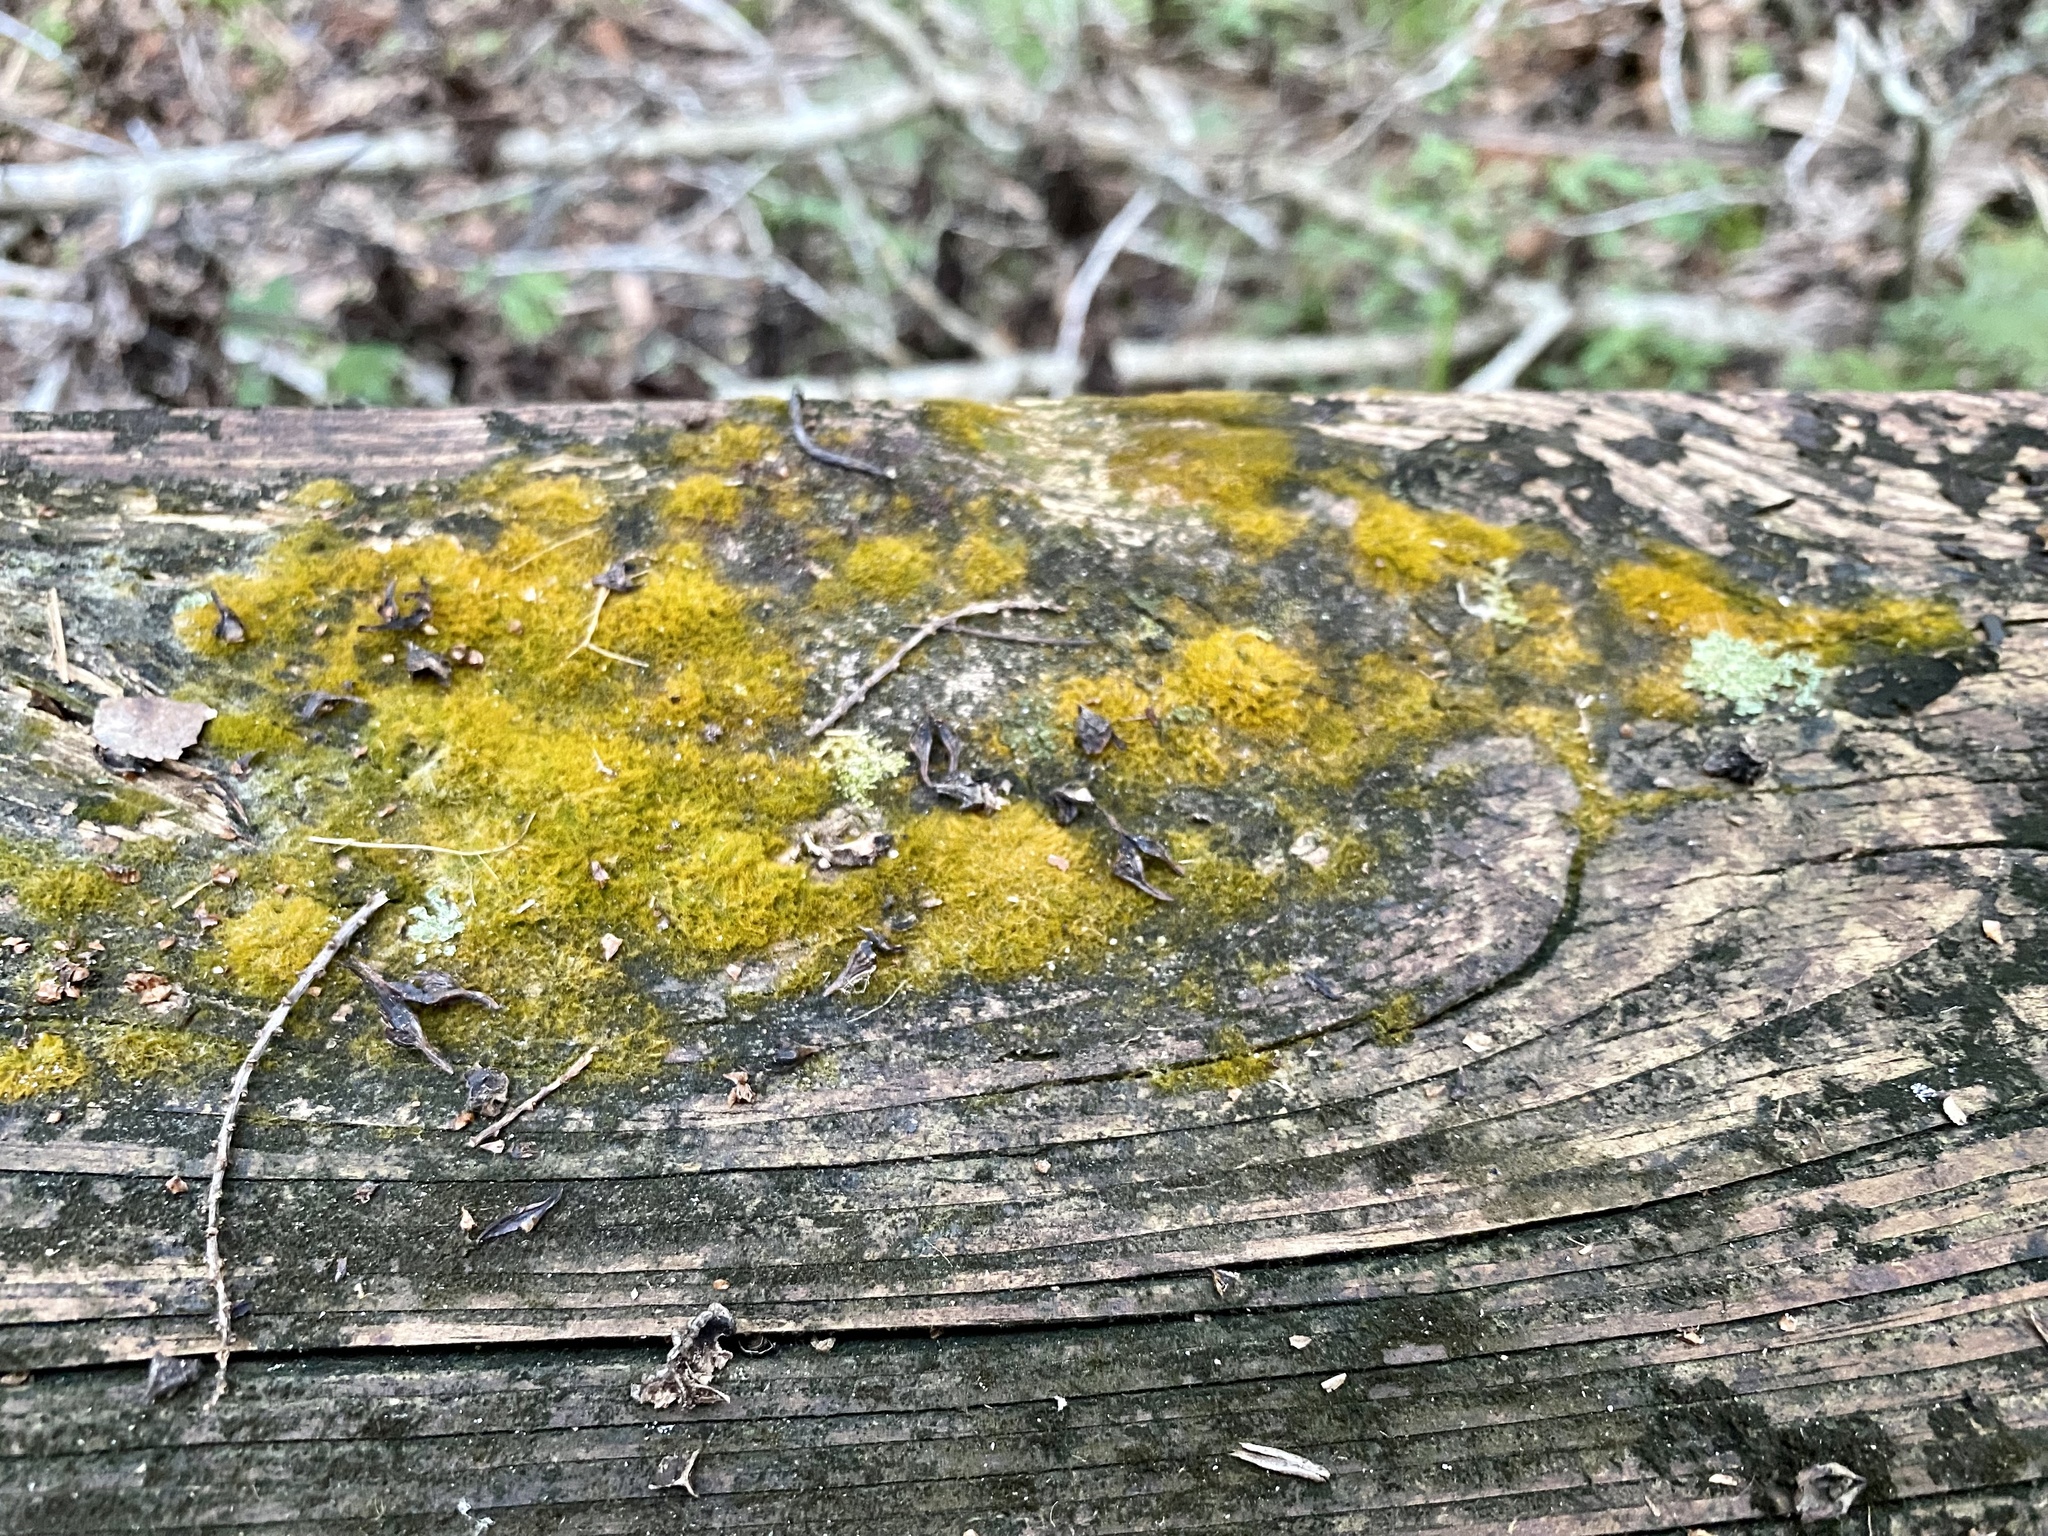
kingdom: Plantae
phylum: Chlorophyta
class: Ulvophyceae
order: Trentepohliales
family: Trentepohliaceae
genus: Trentepohlia
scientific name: Trentepohlia aurea
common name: Orange rock hair
